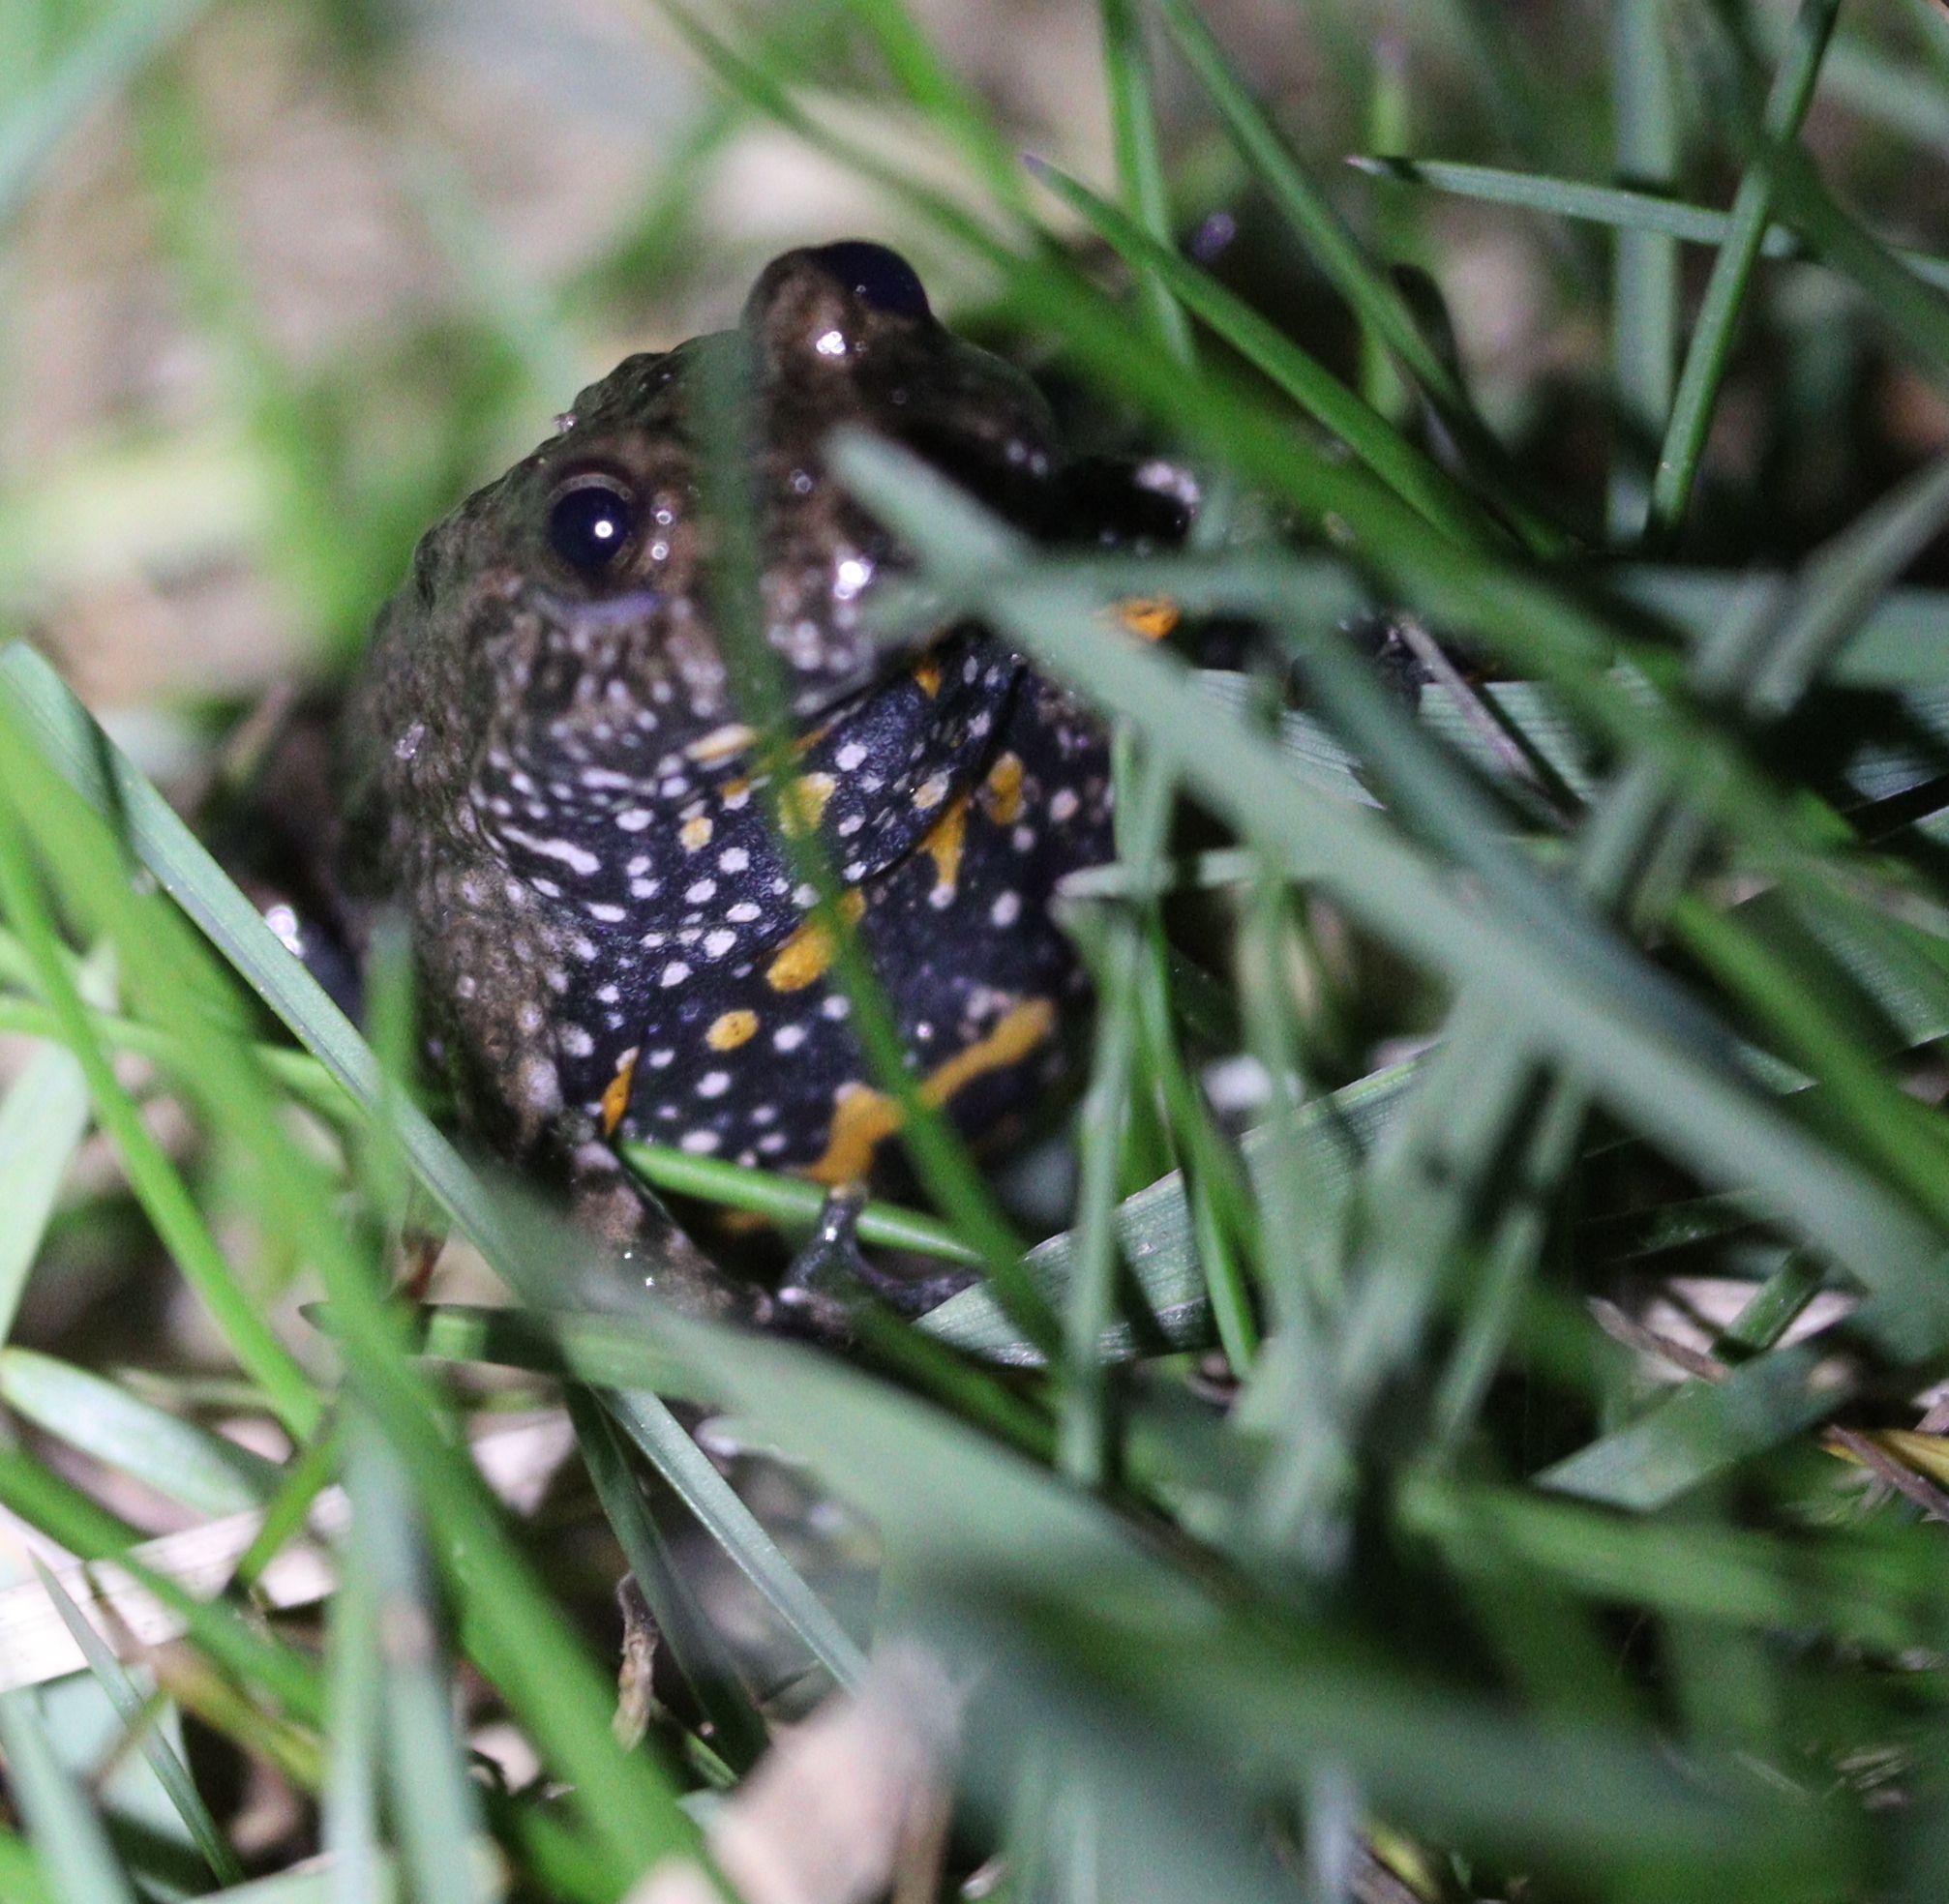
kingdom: Animalia
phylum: Chordata
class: Amphibia
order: Anura
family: Bombinatoridae
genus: Bombina
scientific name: Bombina bombina
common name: Fire-bellied toad
